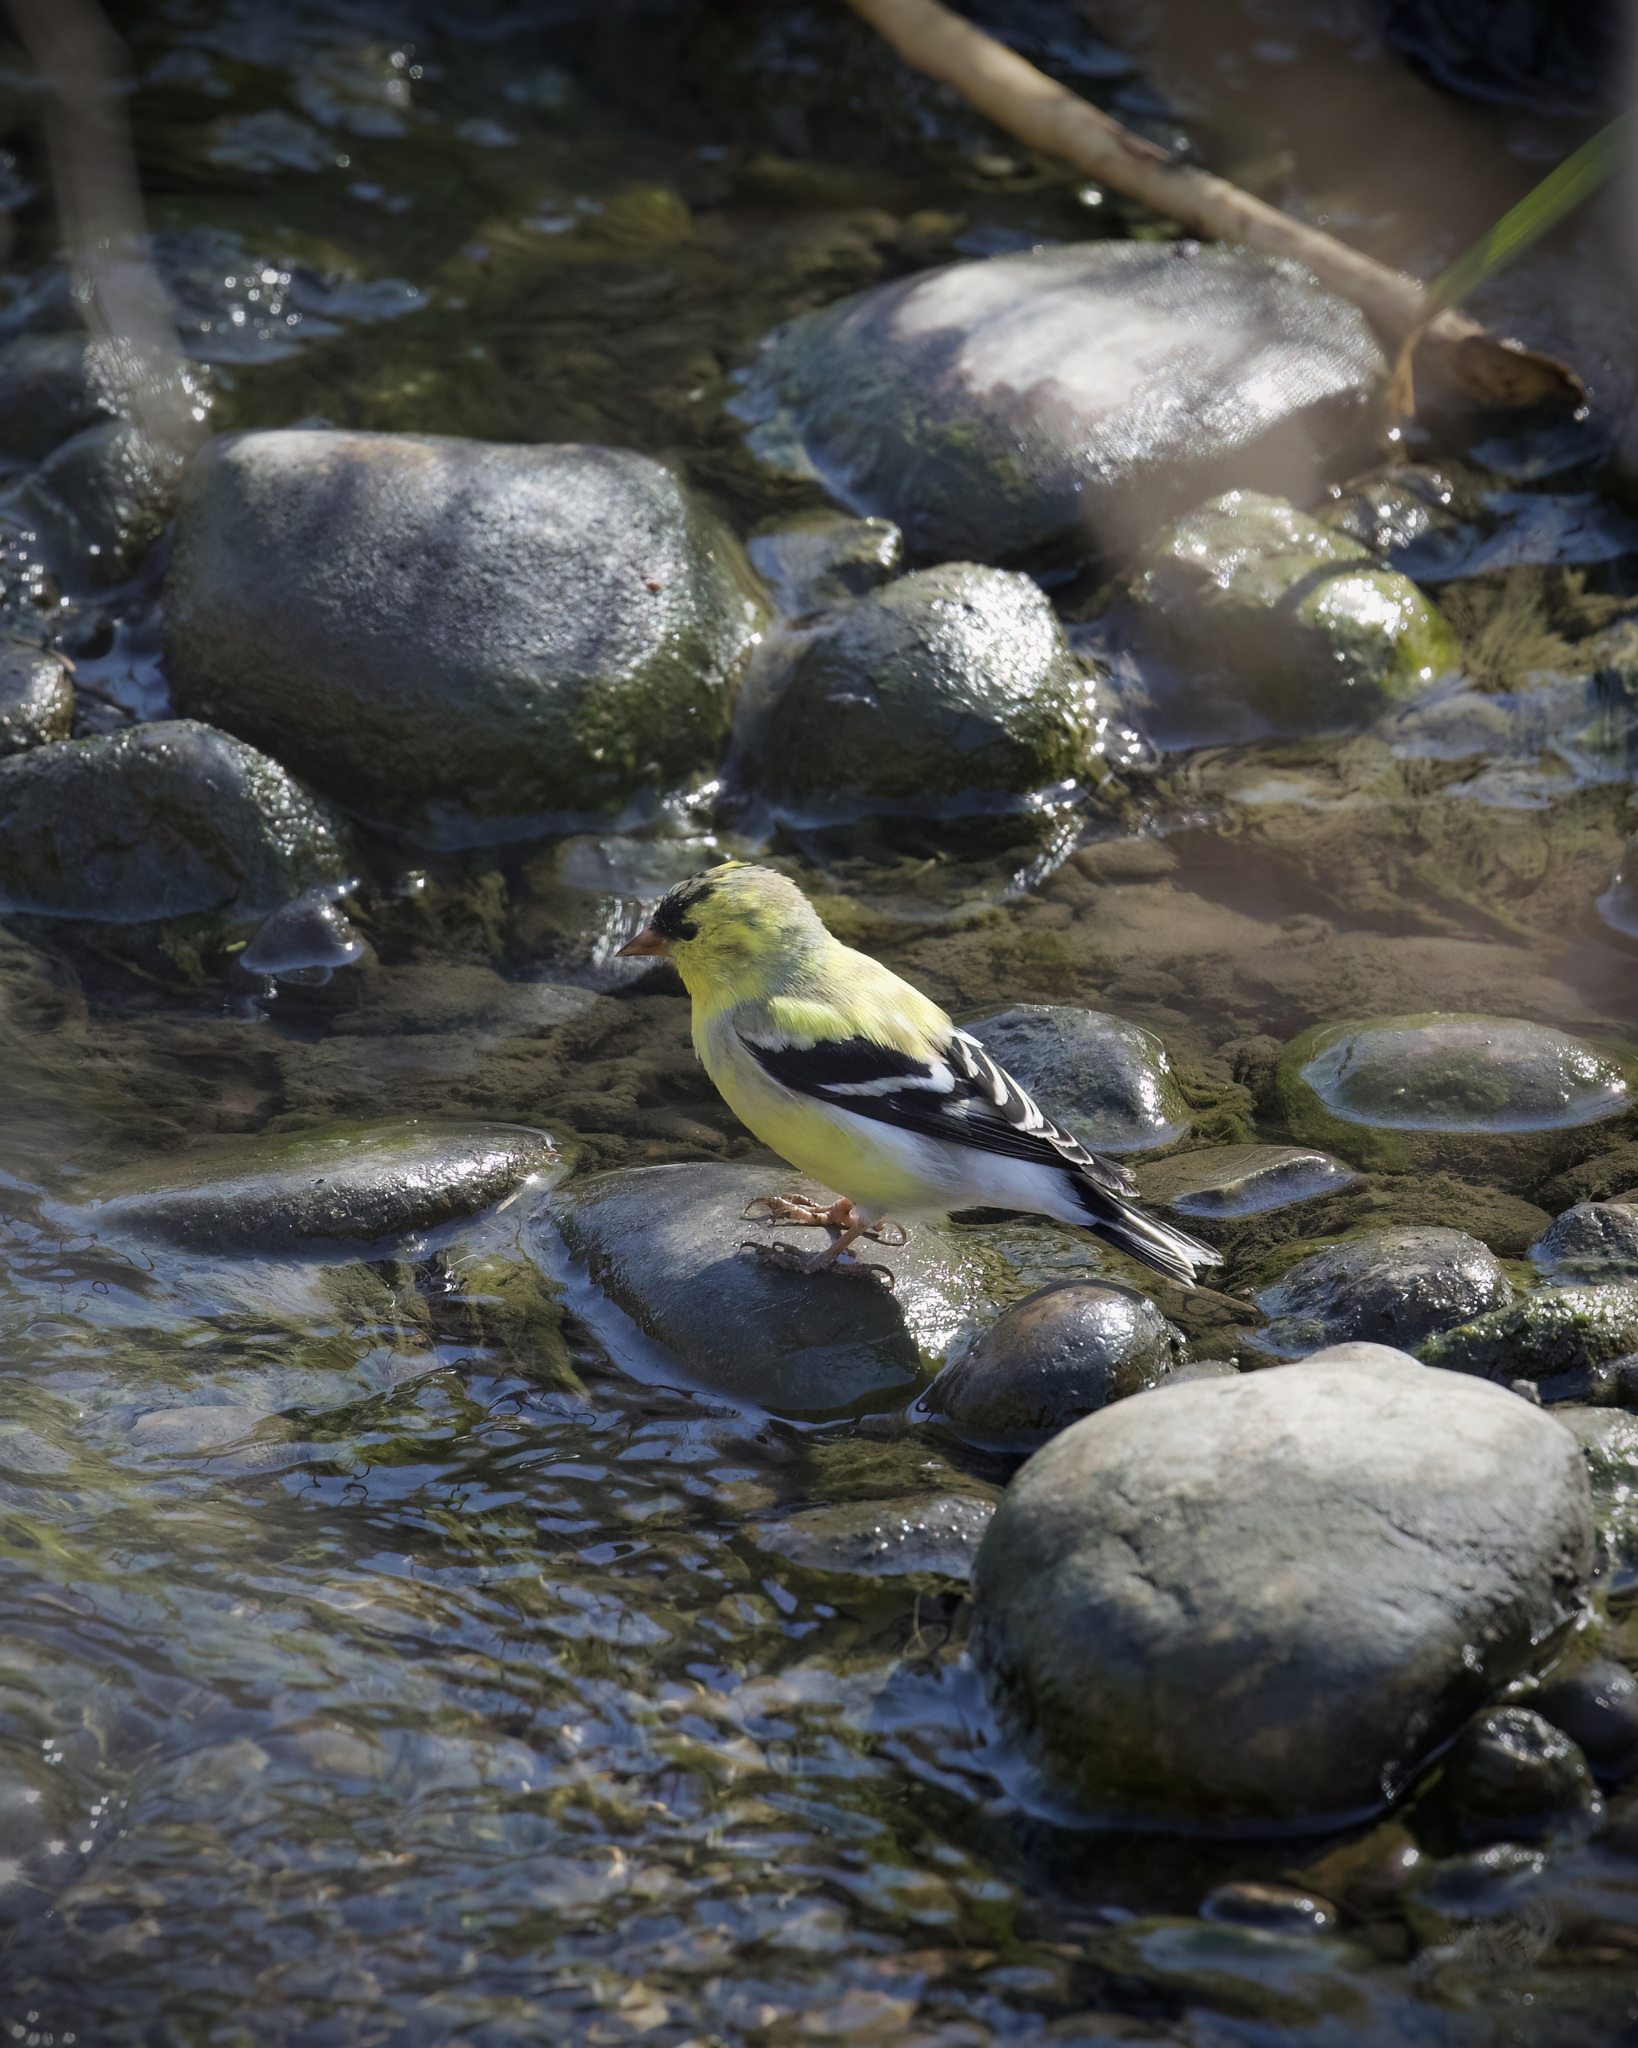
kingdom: Animalia
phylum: Chordata
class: Aves
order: Passeriformes
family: Fringillidae
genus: Spinus
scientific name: Spinus tristis
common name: American goldfinch
